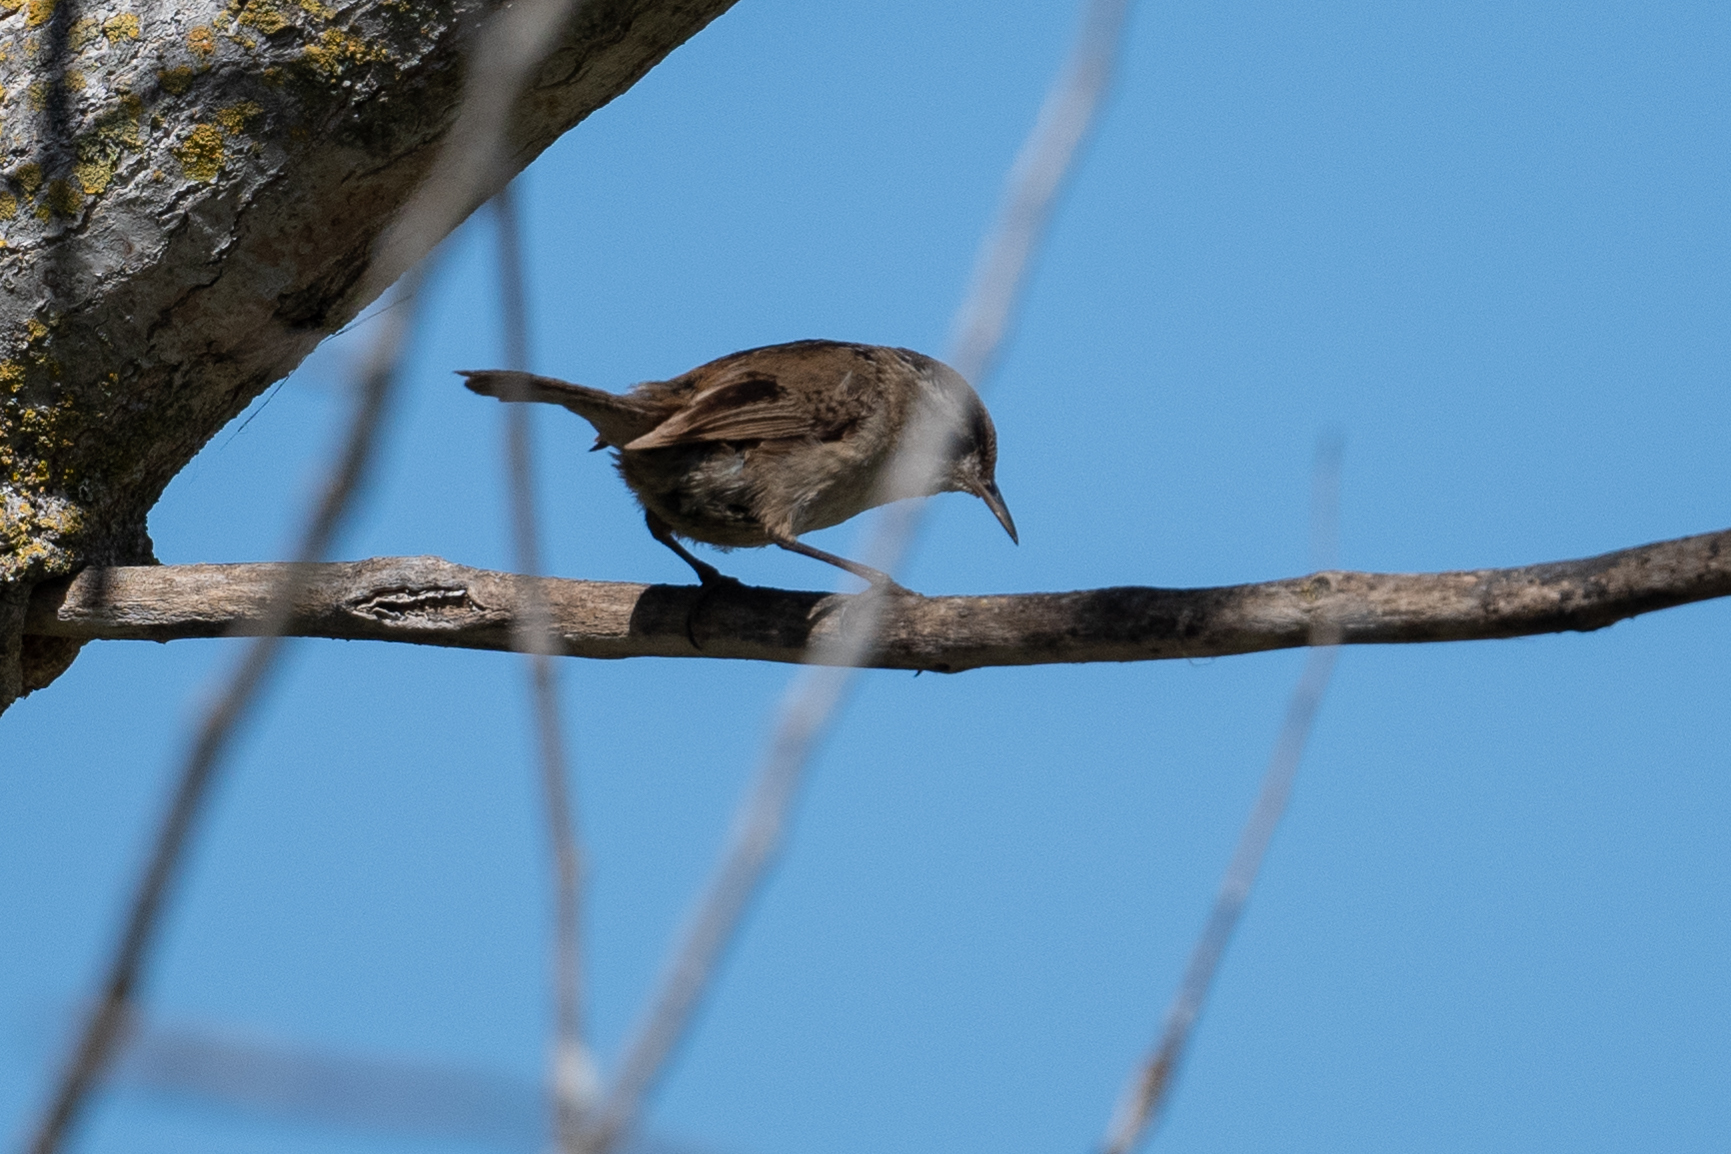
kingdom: Animalia
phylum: Chordata
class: Aves
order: Passeriformes
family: Troglodytidae
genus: Thryomanes
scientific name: Thryomanes bewickii
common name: Bewick's wren
